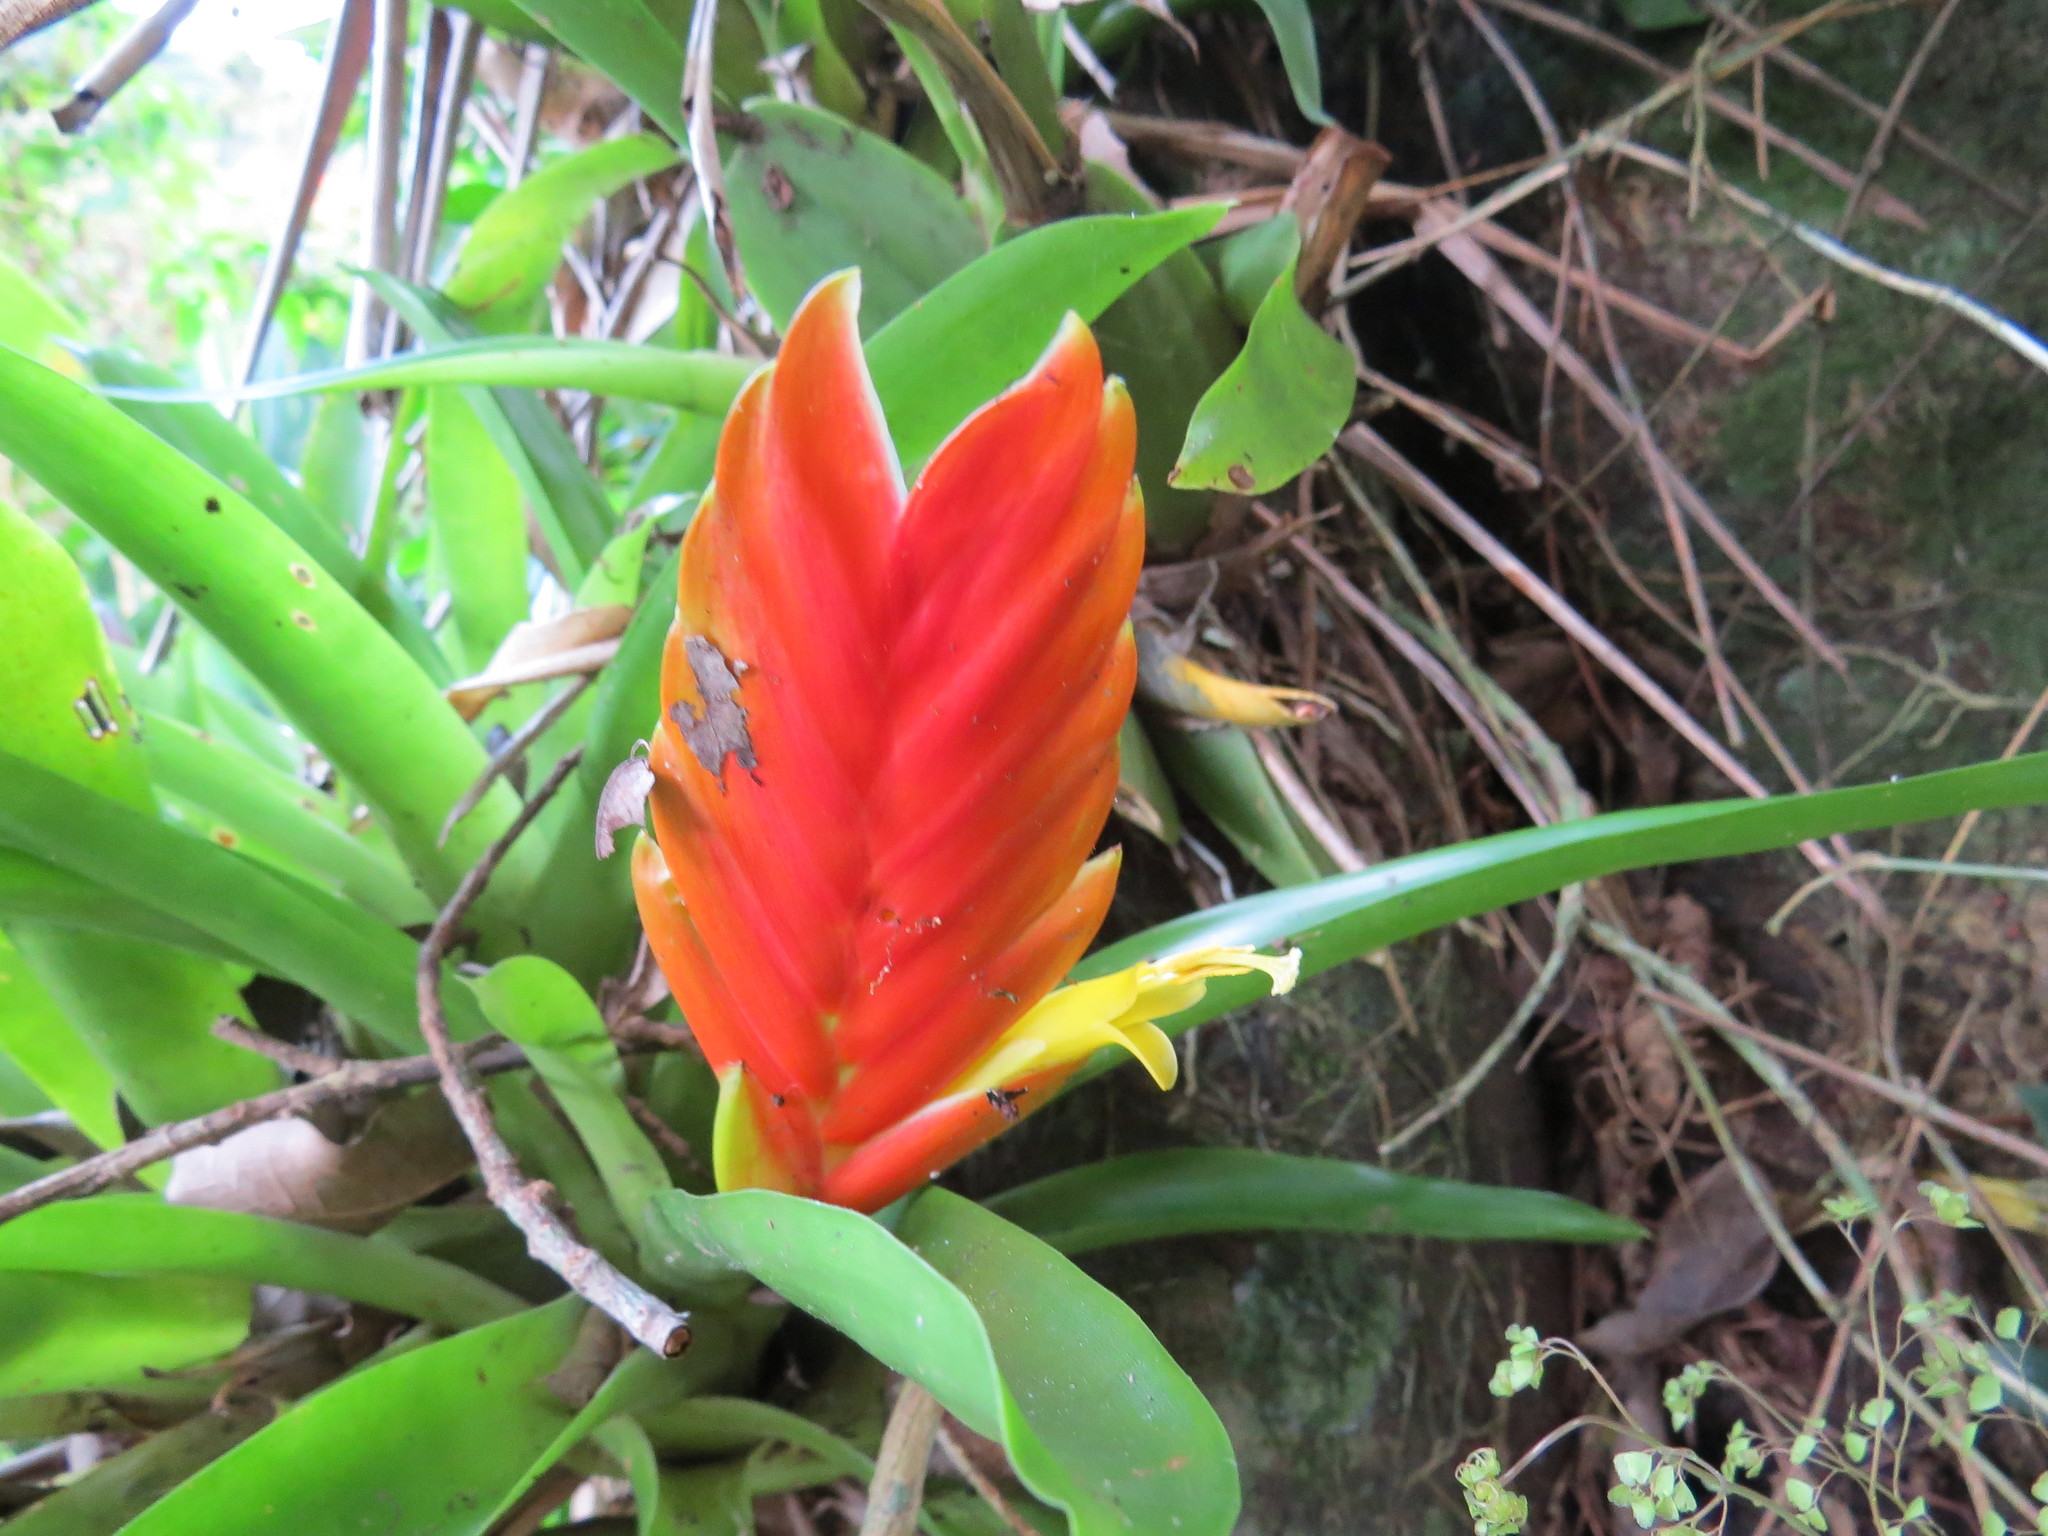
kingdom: Plantae
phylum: Tracheophyta
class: Liliopsida
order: Poales
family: Bromeliaceae
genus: Vriesea
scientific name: Vriesea paraibica
